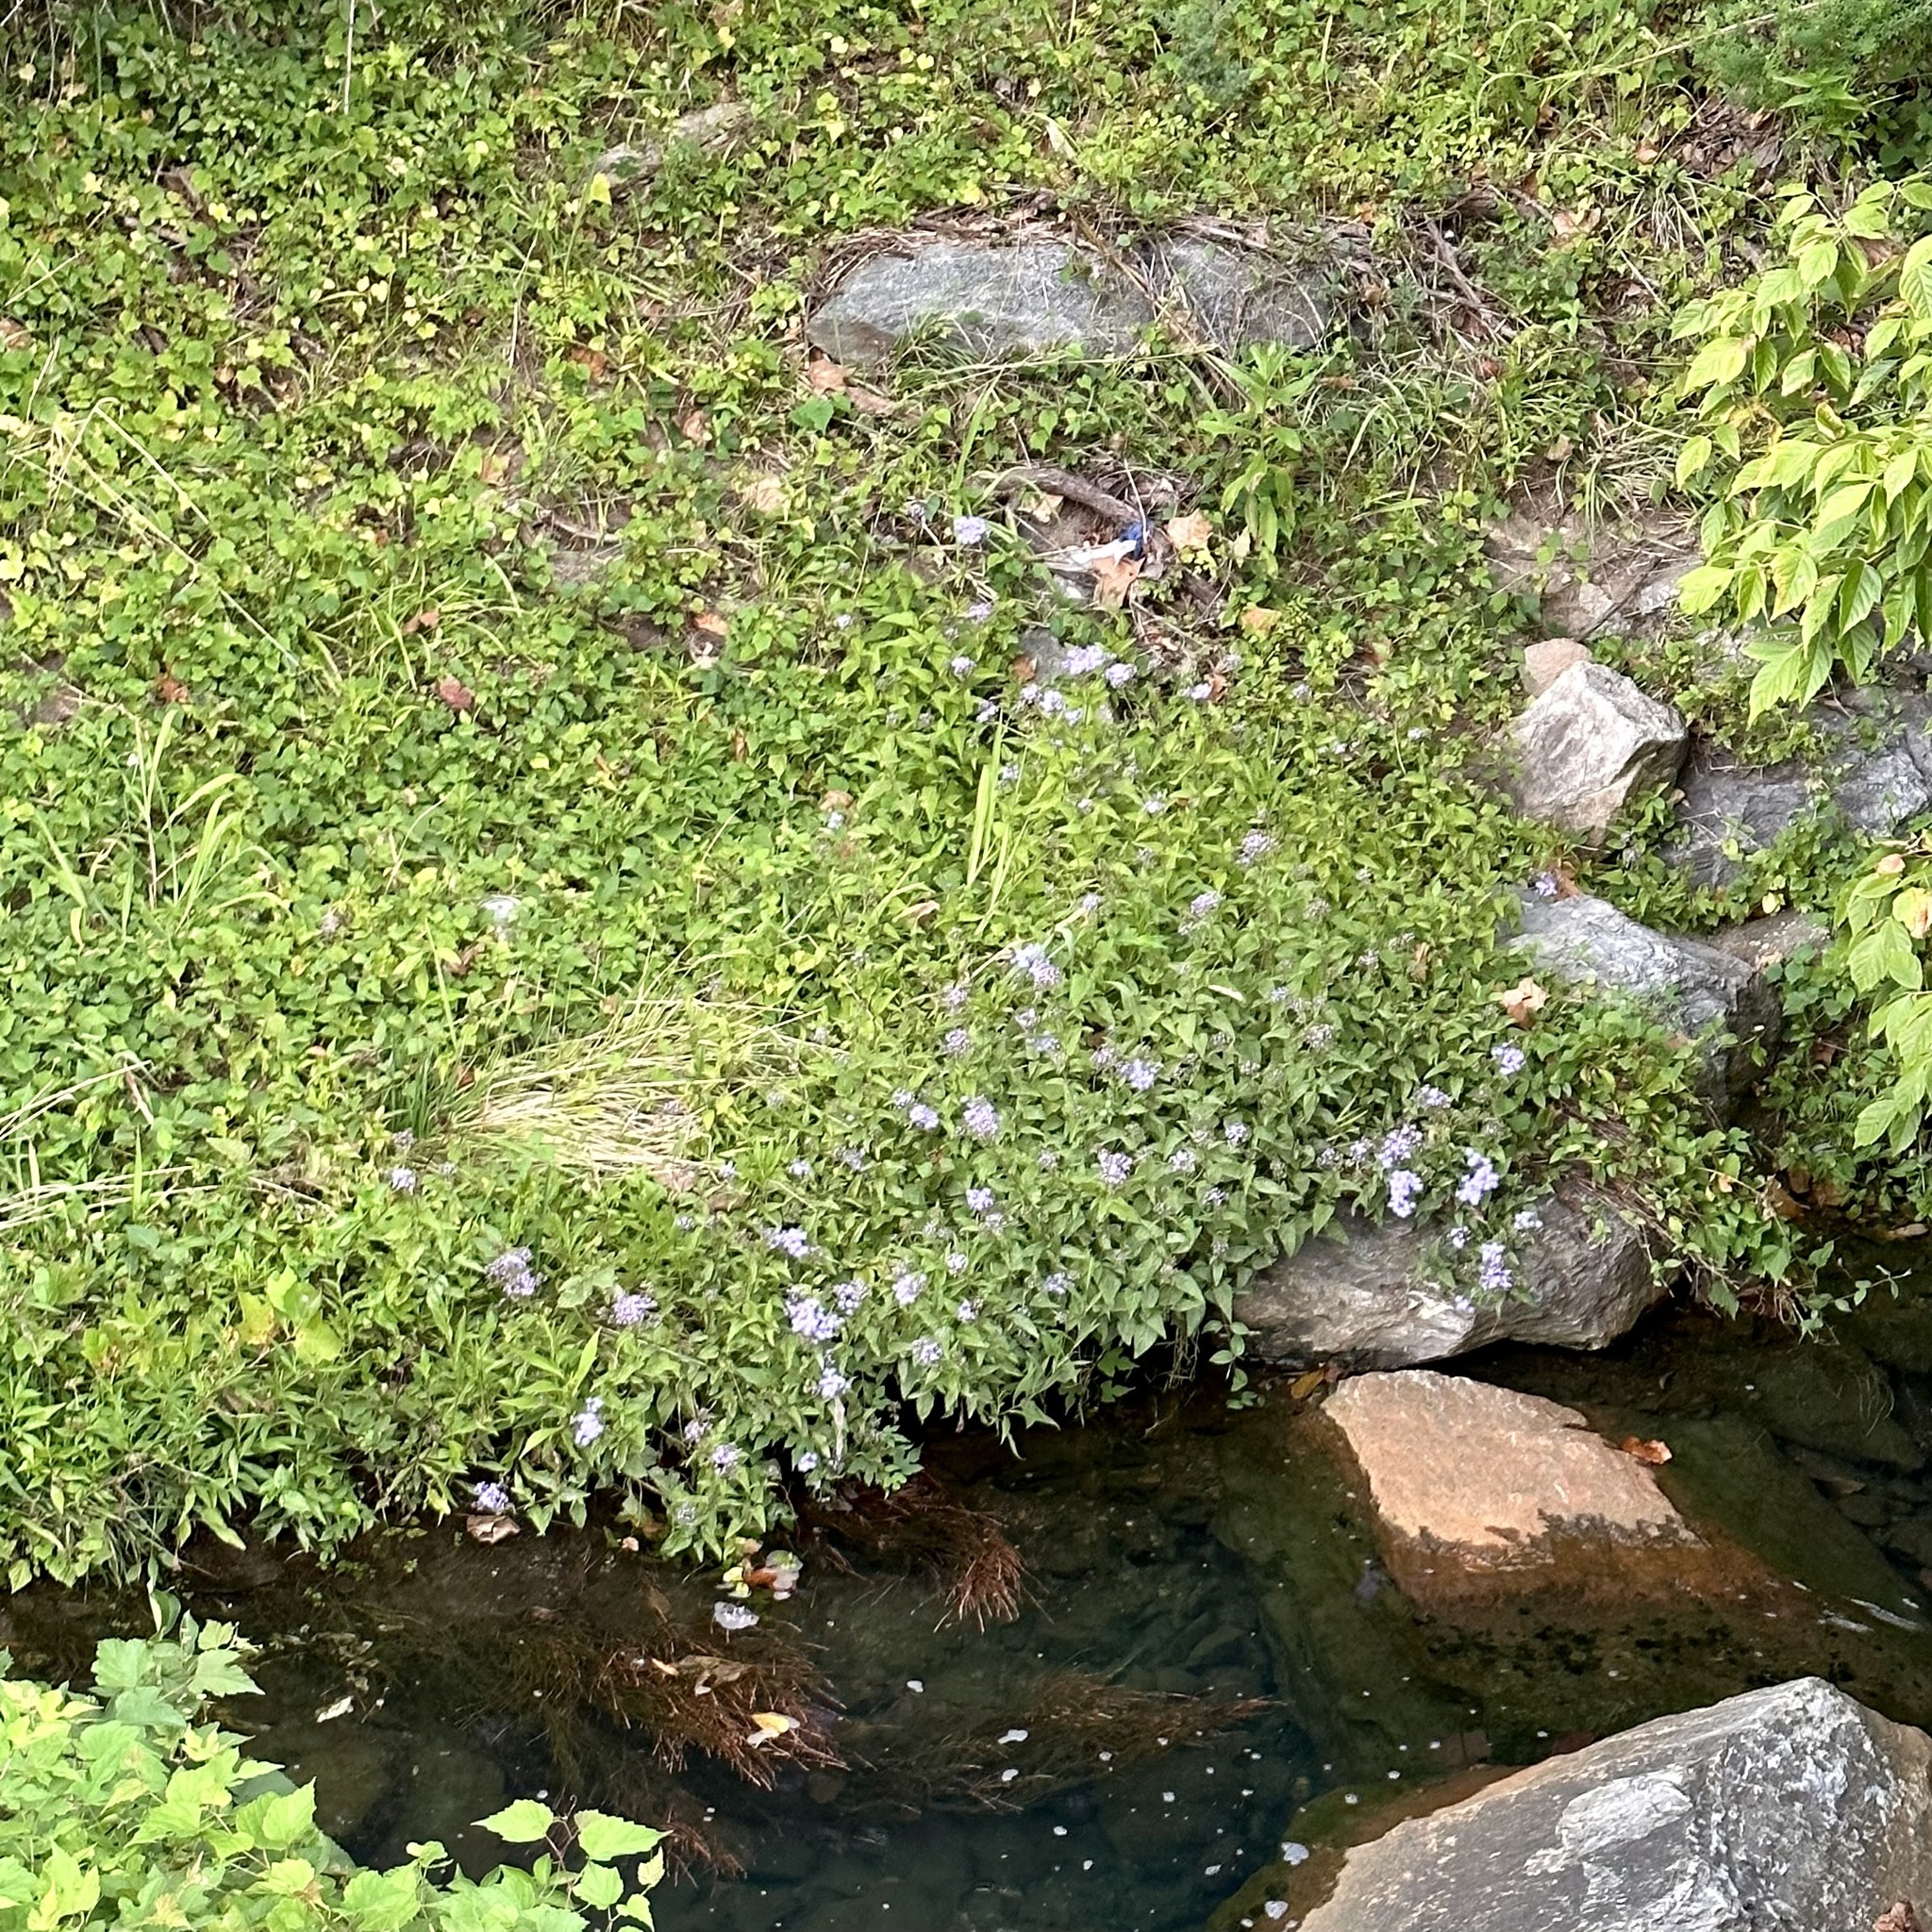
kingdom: Plantae
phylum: Tracheophyta
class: Magnoliopsida
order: Asterales
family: Asteraceae
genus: Conoclinium
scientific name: Conoclinium coelestinum
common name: Blue mistflower
